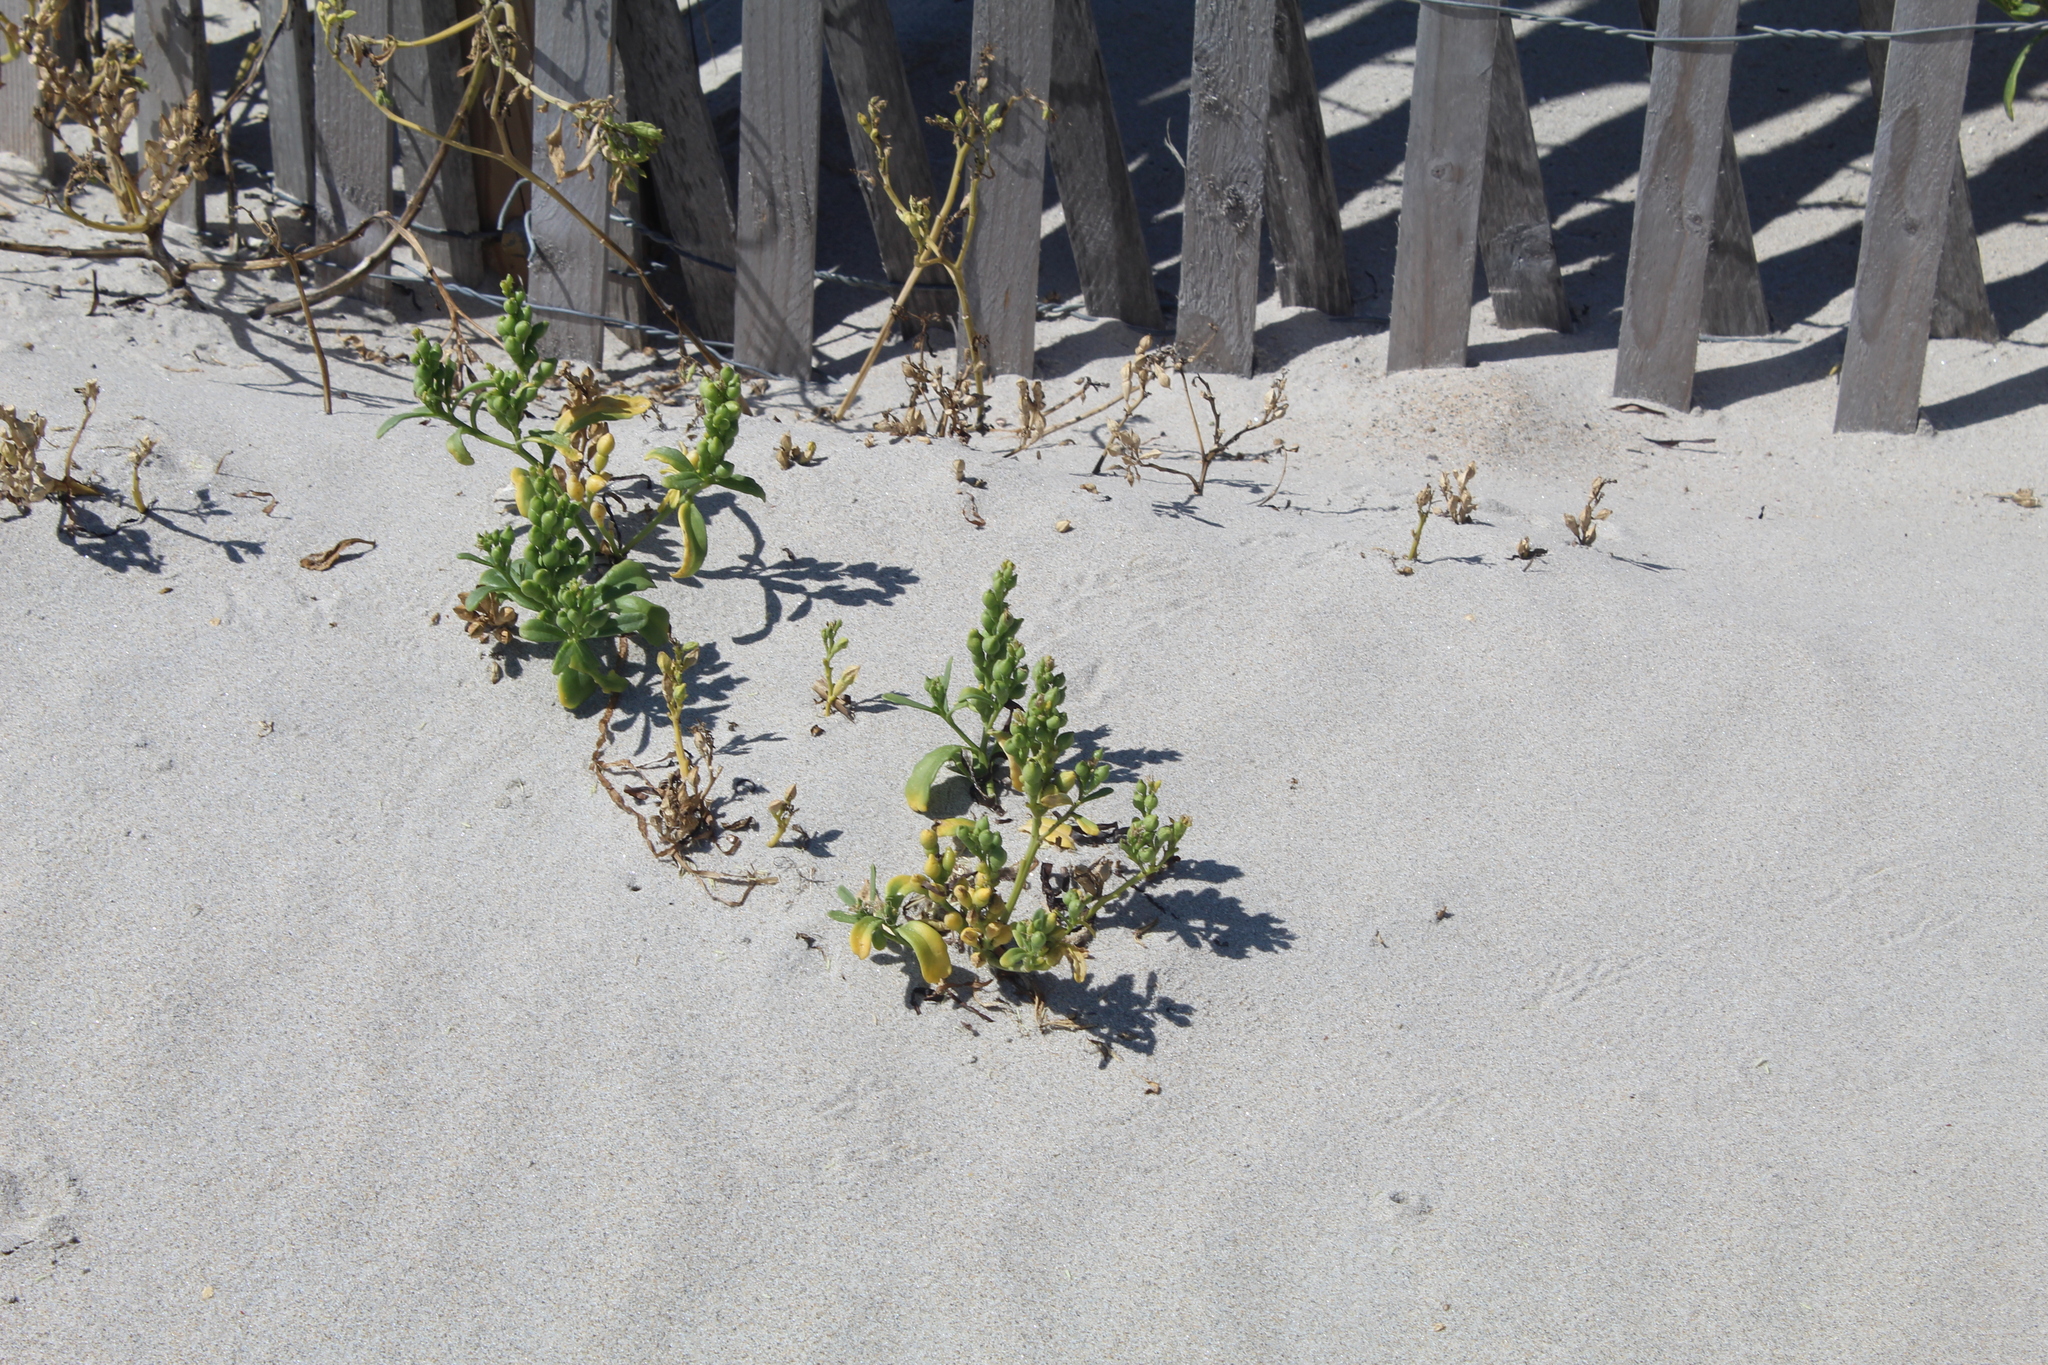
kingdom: Plantae
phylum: Tracheophyta
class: Magnoliopsida
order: Brassicales
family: Brassicaceae
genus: Cakile
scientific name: Cakile edentula
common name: American sea rocket
